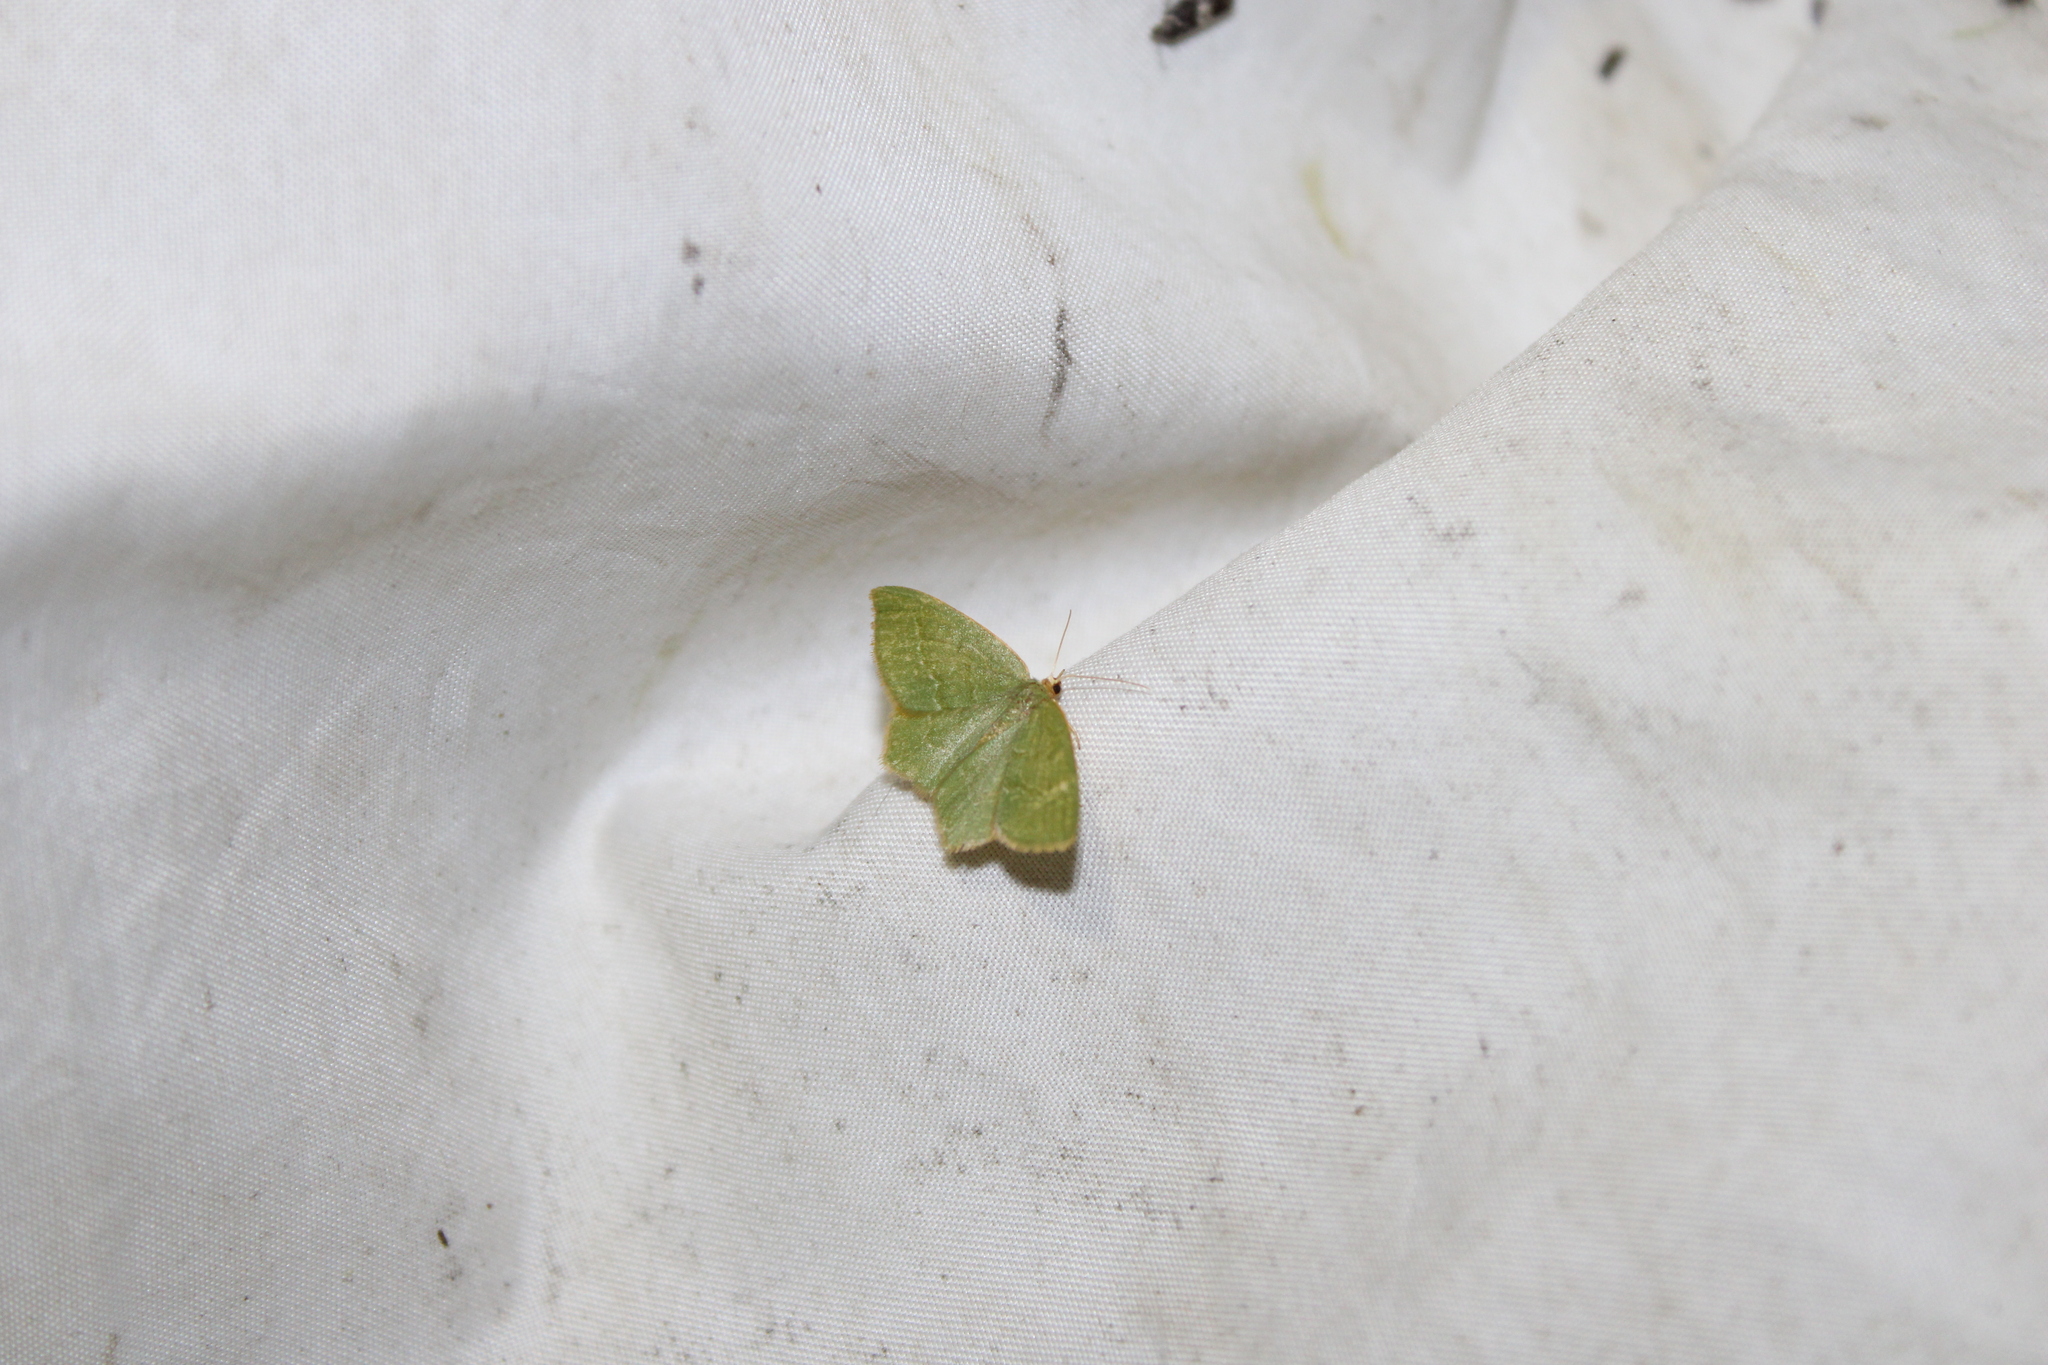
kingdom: Animalia
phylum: Arthropoda
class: Insecta
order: Lepidoptera
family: Geometridae
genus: Thalera
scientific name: Thalera pistasciaria
